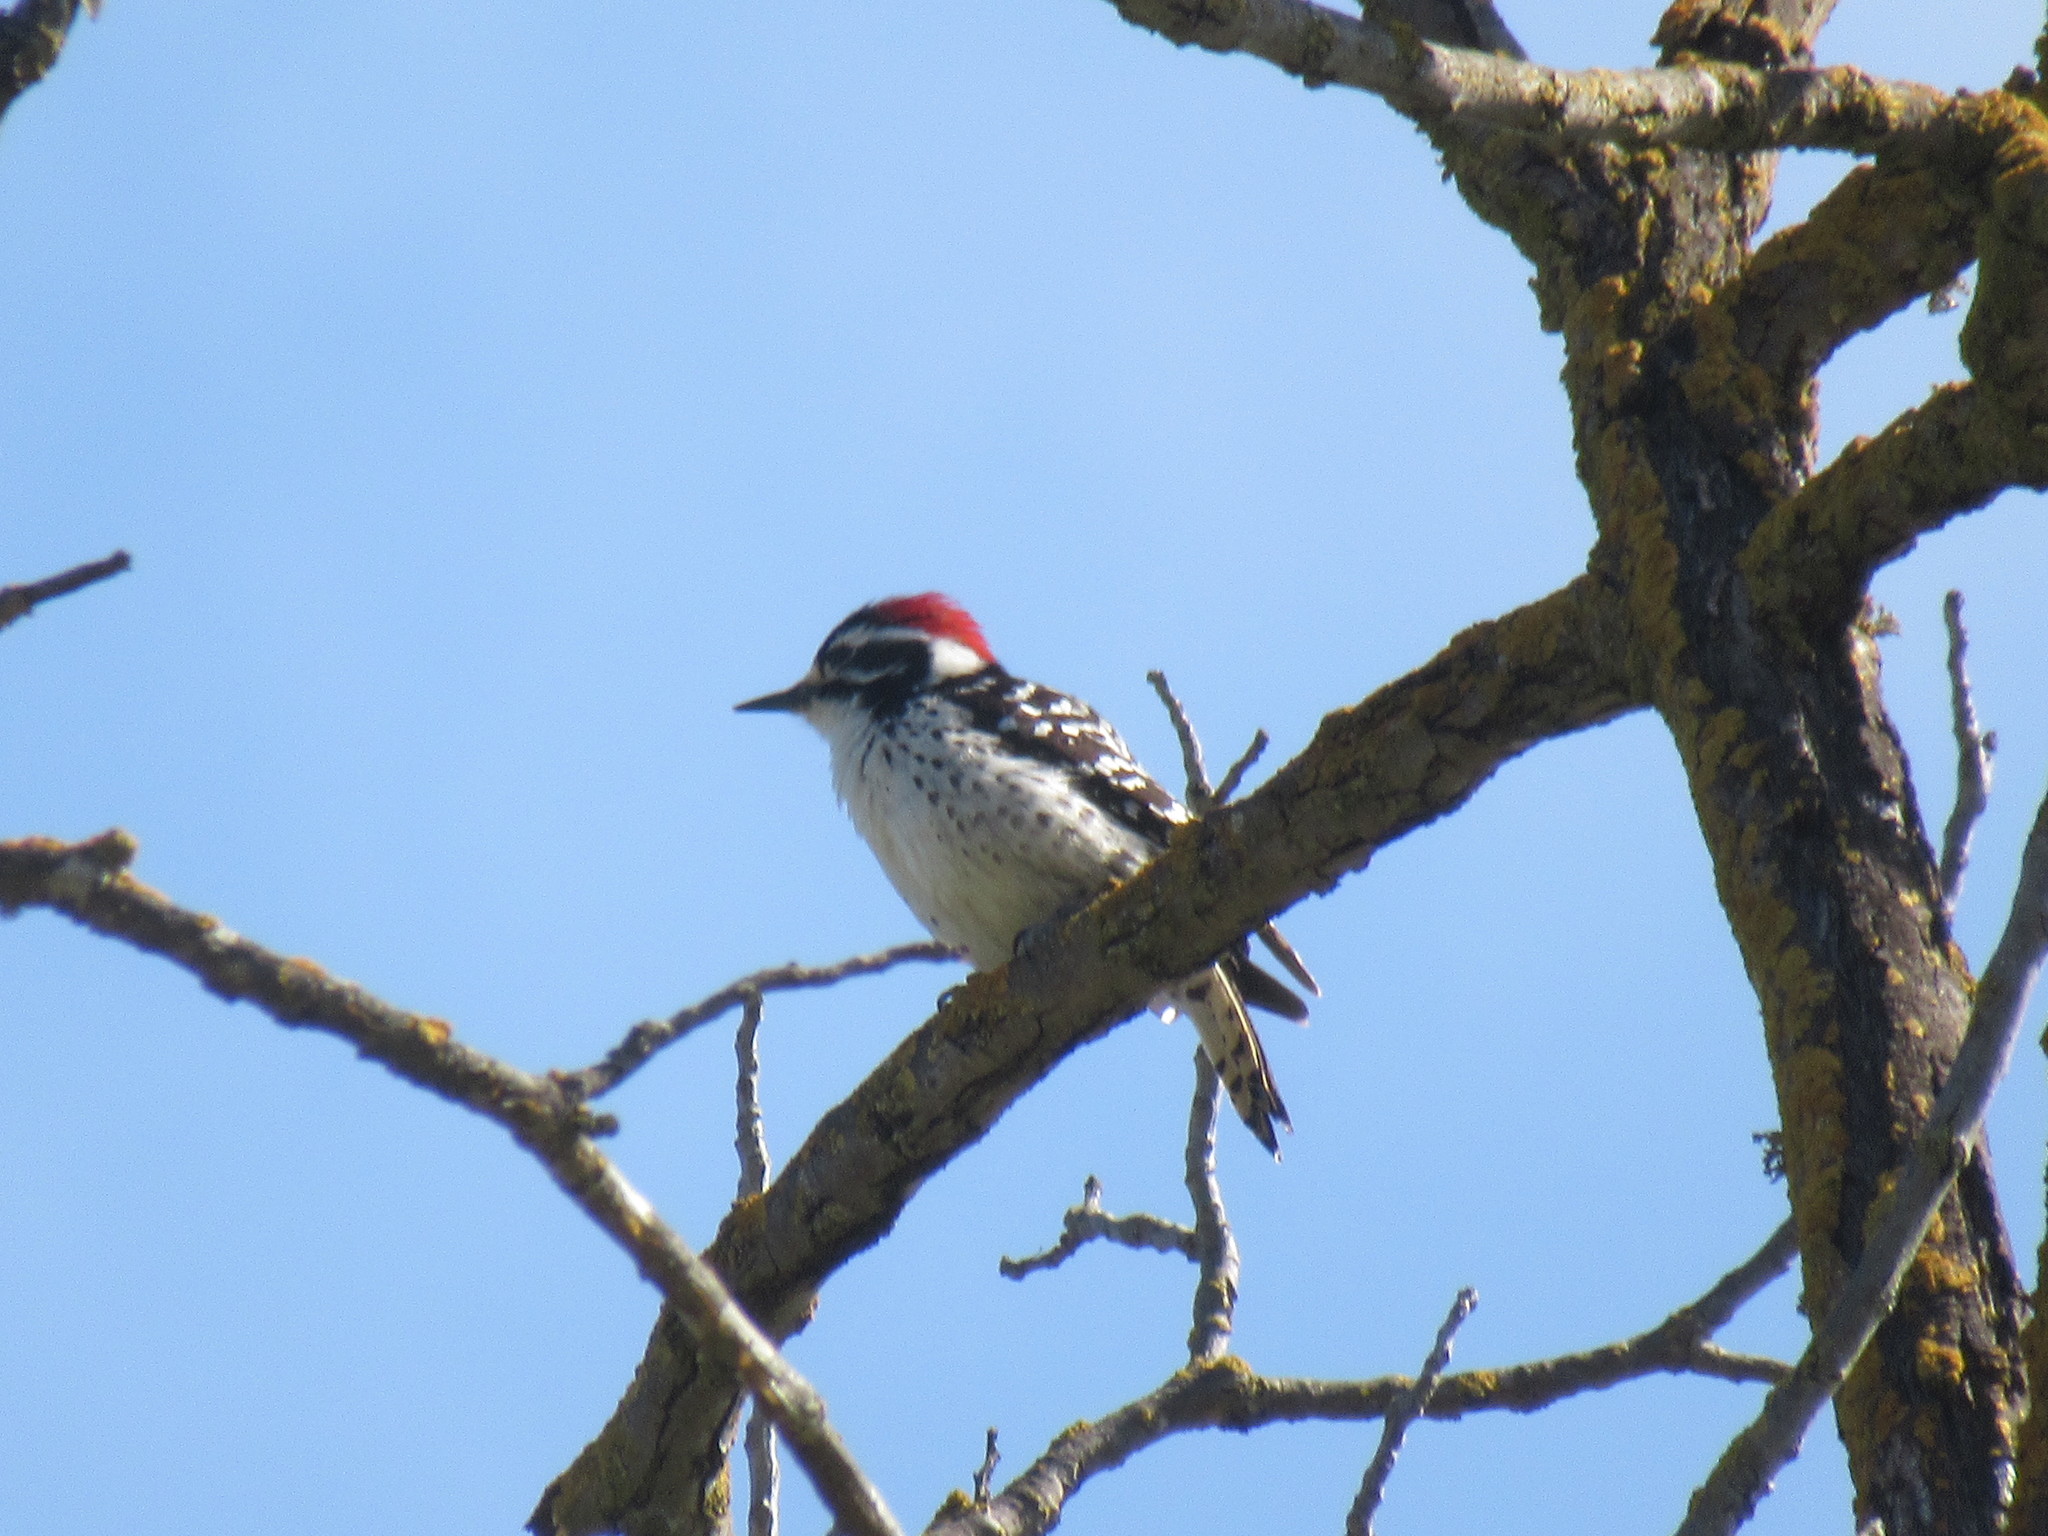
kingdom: Animalia
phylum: Chordata
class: Aves
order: Piciformes
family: Picidae
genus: Dryobates
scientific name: Dryobates nuttallii
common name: Nuttall's woodpecker
